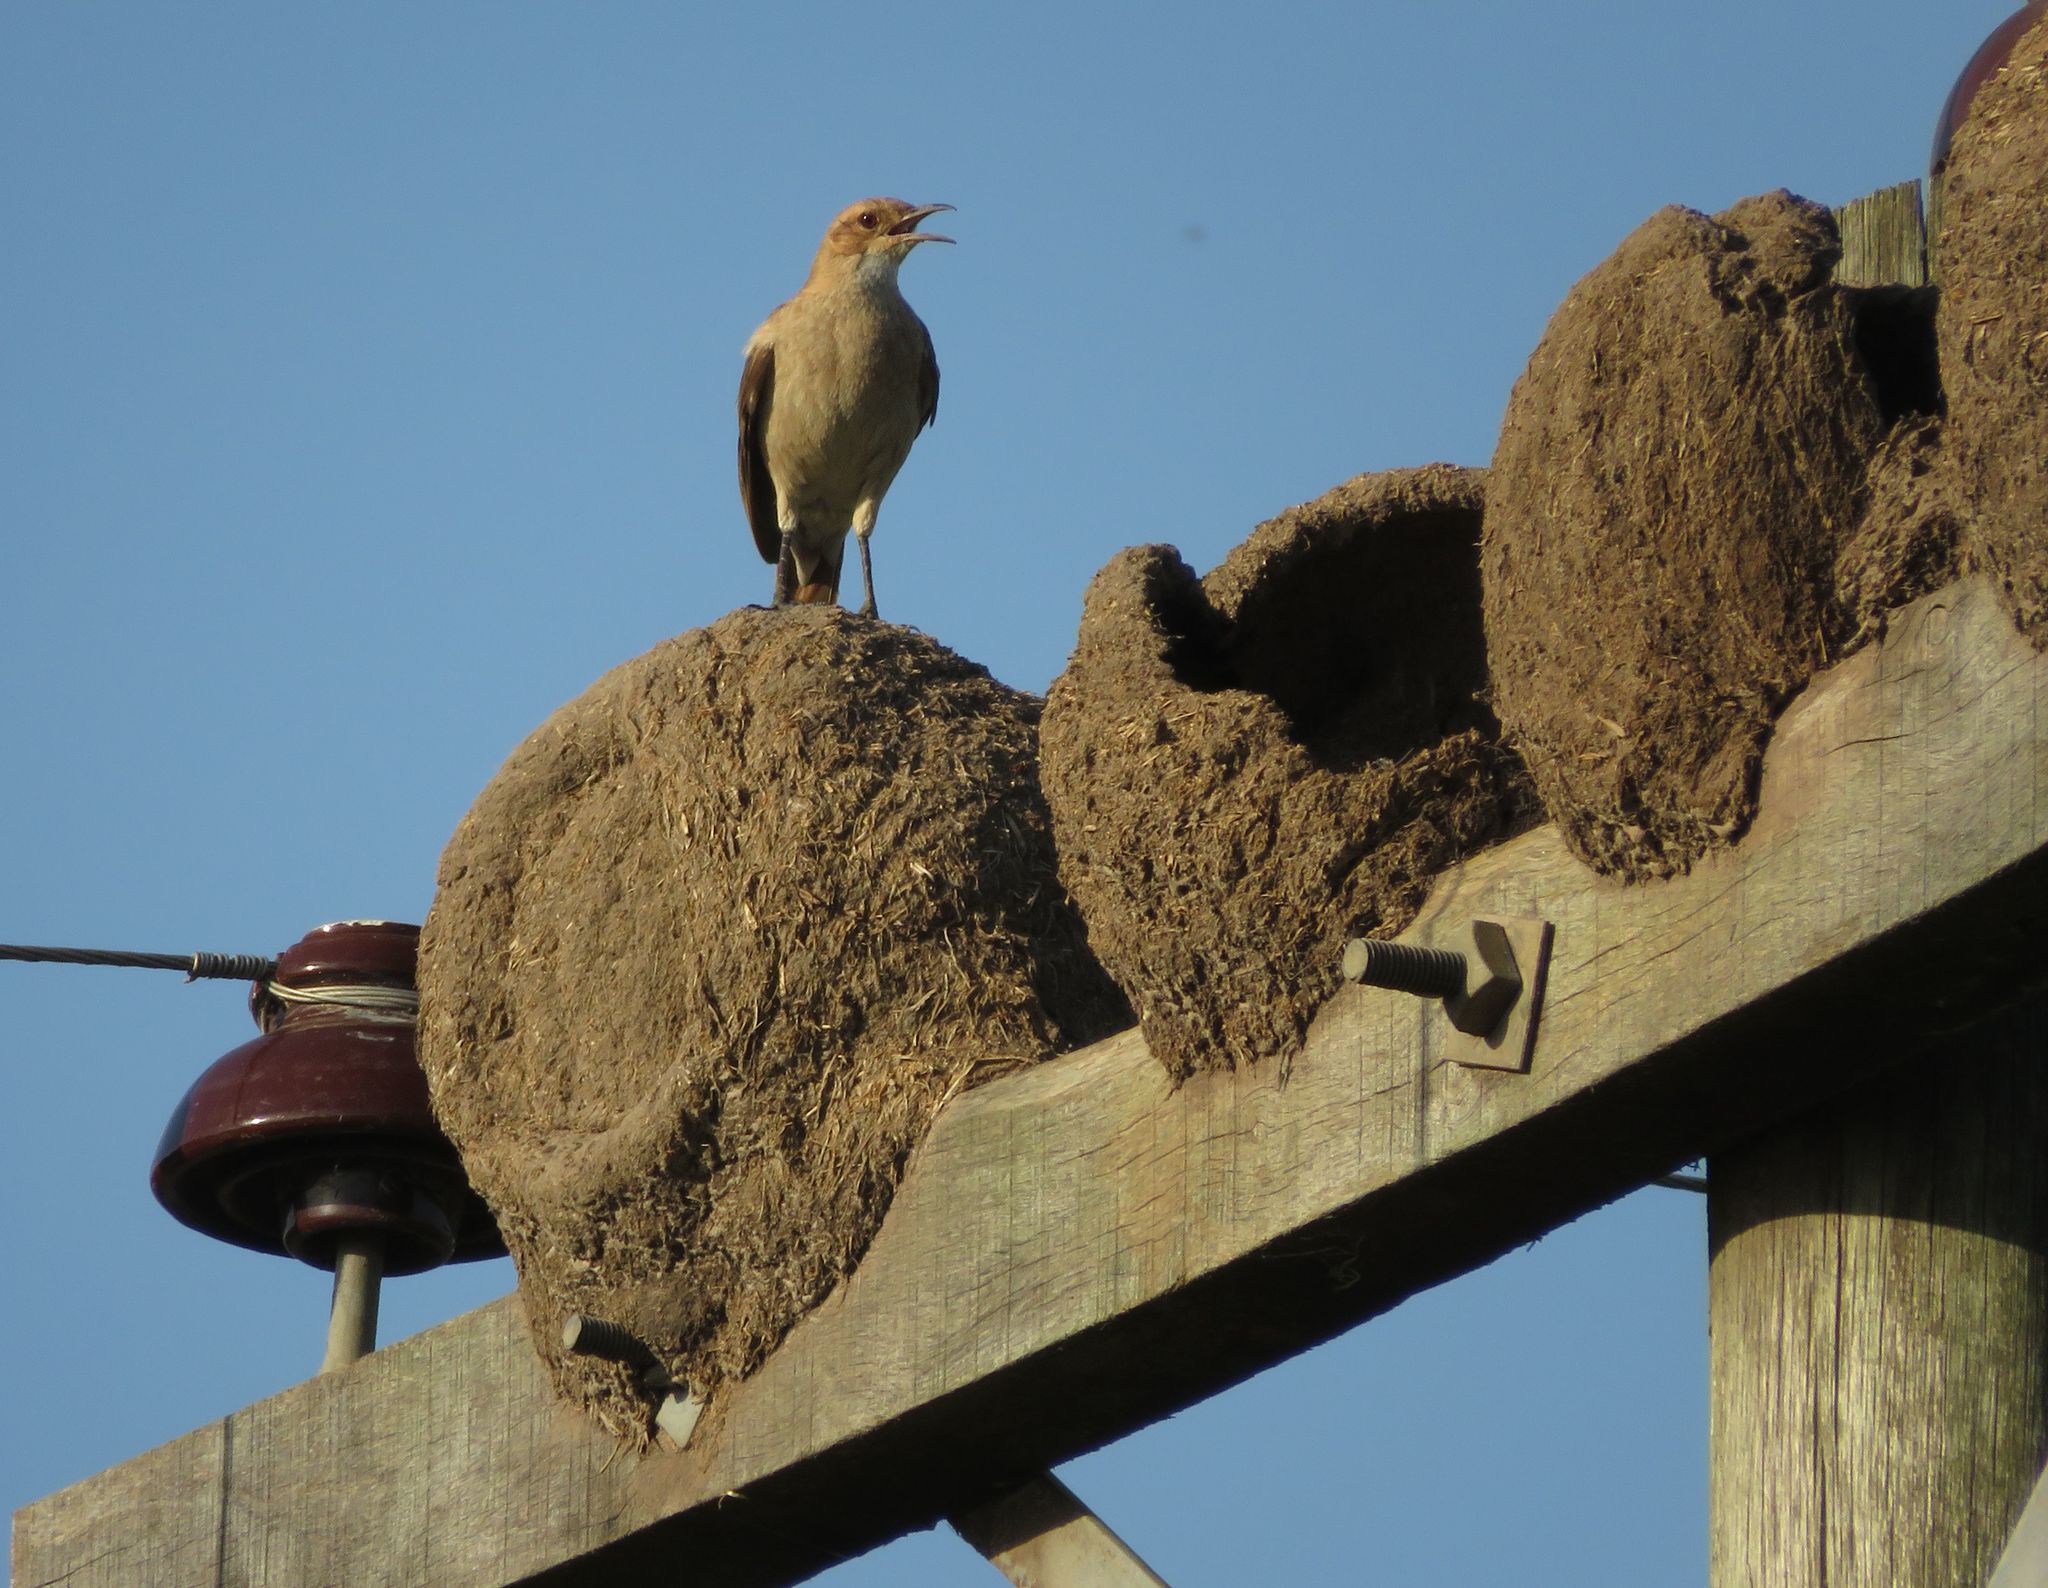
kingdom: Animalia
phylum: Chordata
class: Aves
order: Passeriformes
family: Furnariidae
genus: Furnarius
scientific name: Furnarius rufus
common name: Rufous hornero
